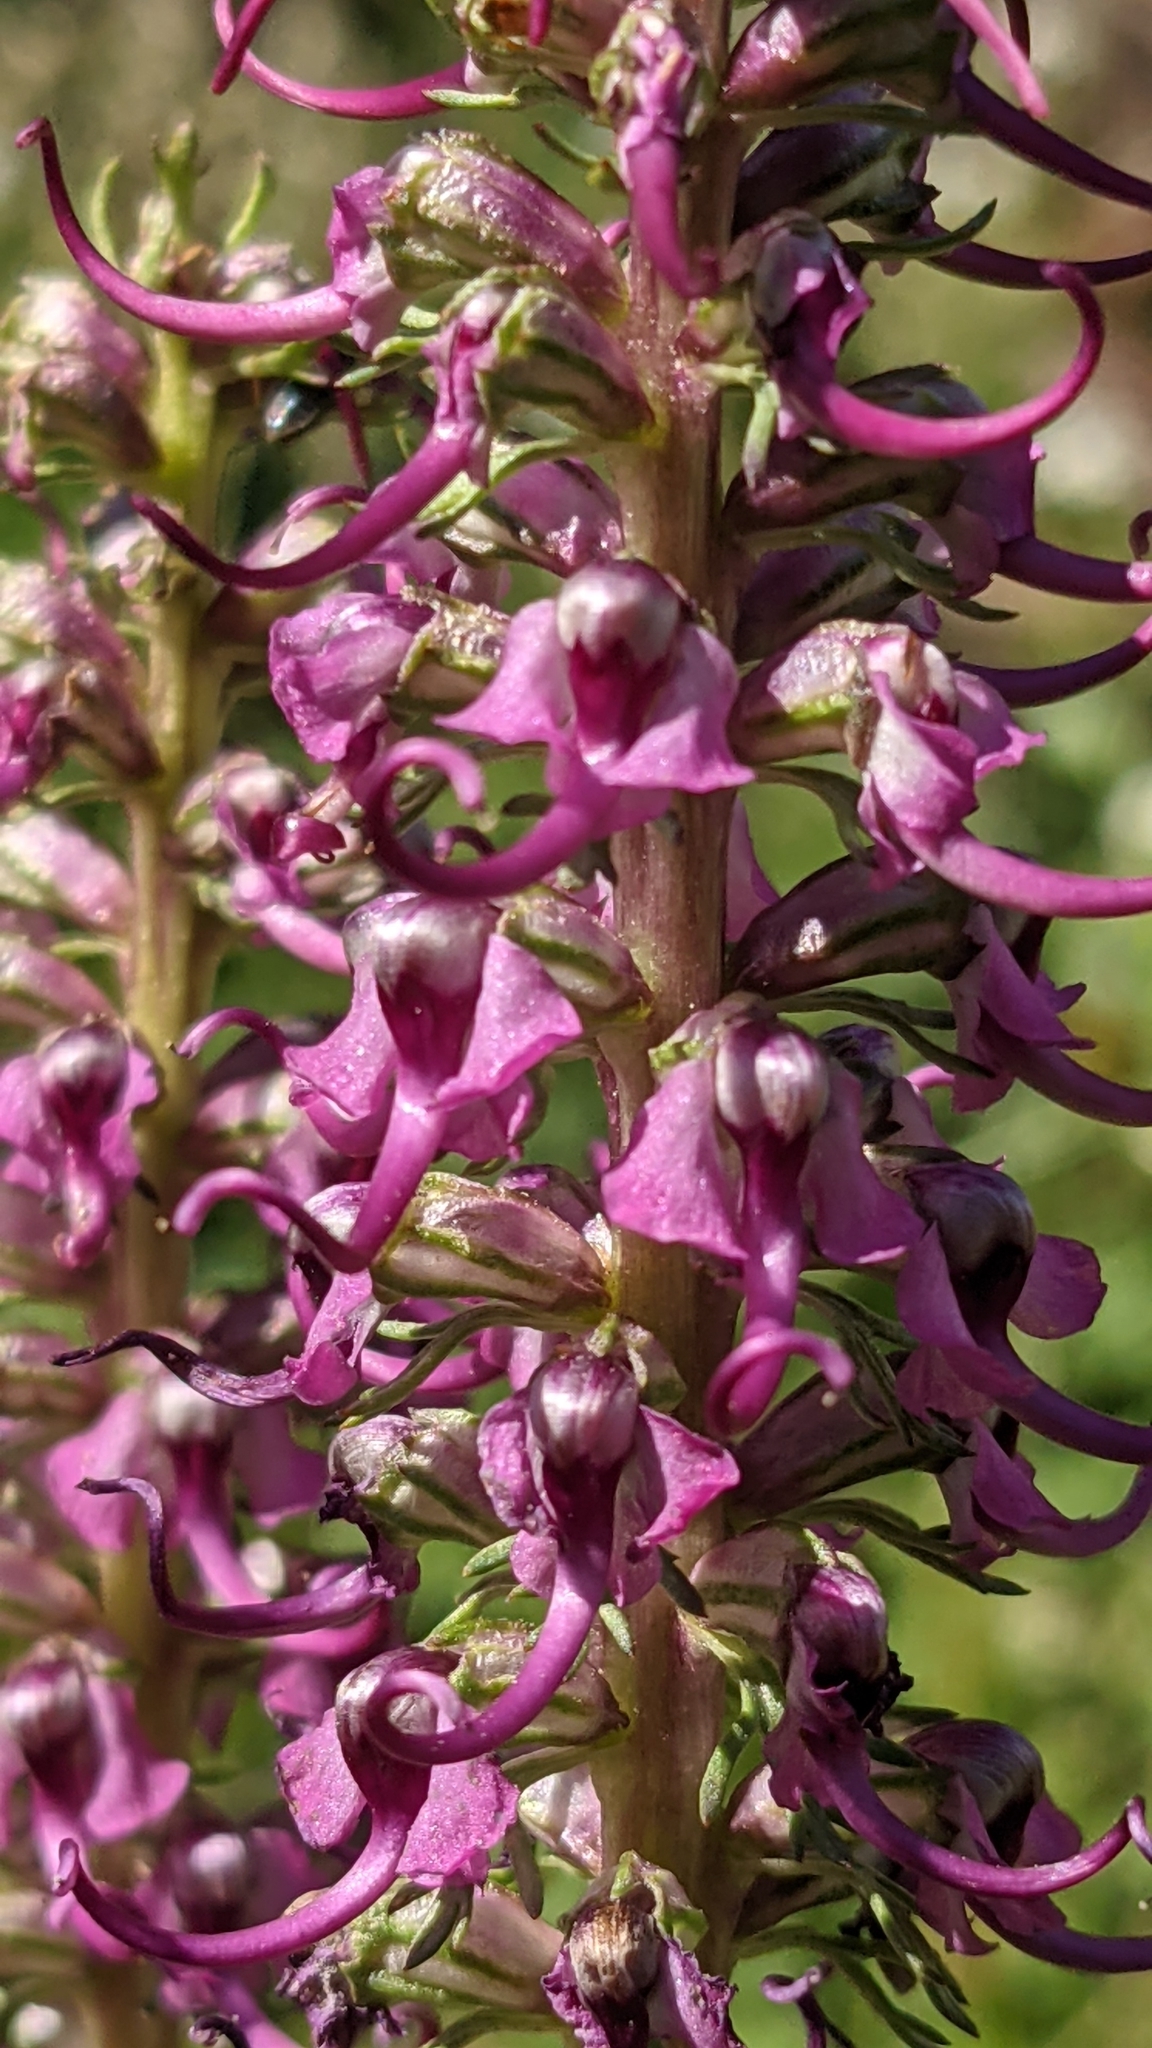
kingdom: Plantae
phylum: Tracheophyta
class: Magnoliopsida
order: Lamiales
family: Orobanchaceae
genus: Pedicularis
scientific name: Pedicularis groenlandica
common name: Elephant's-head
